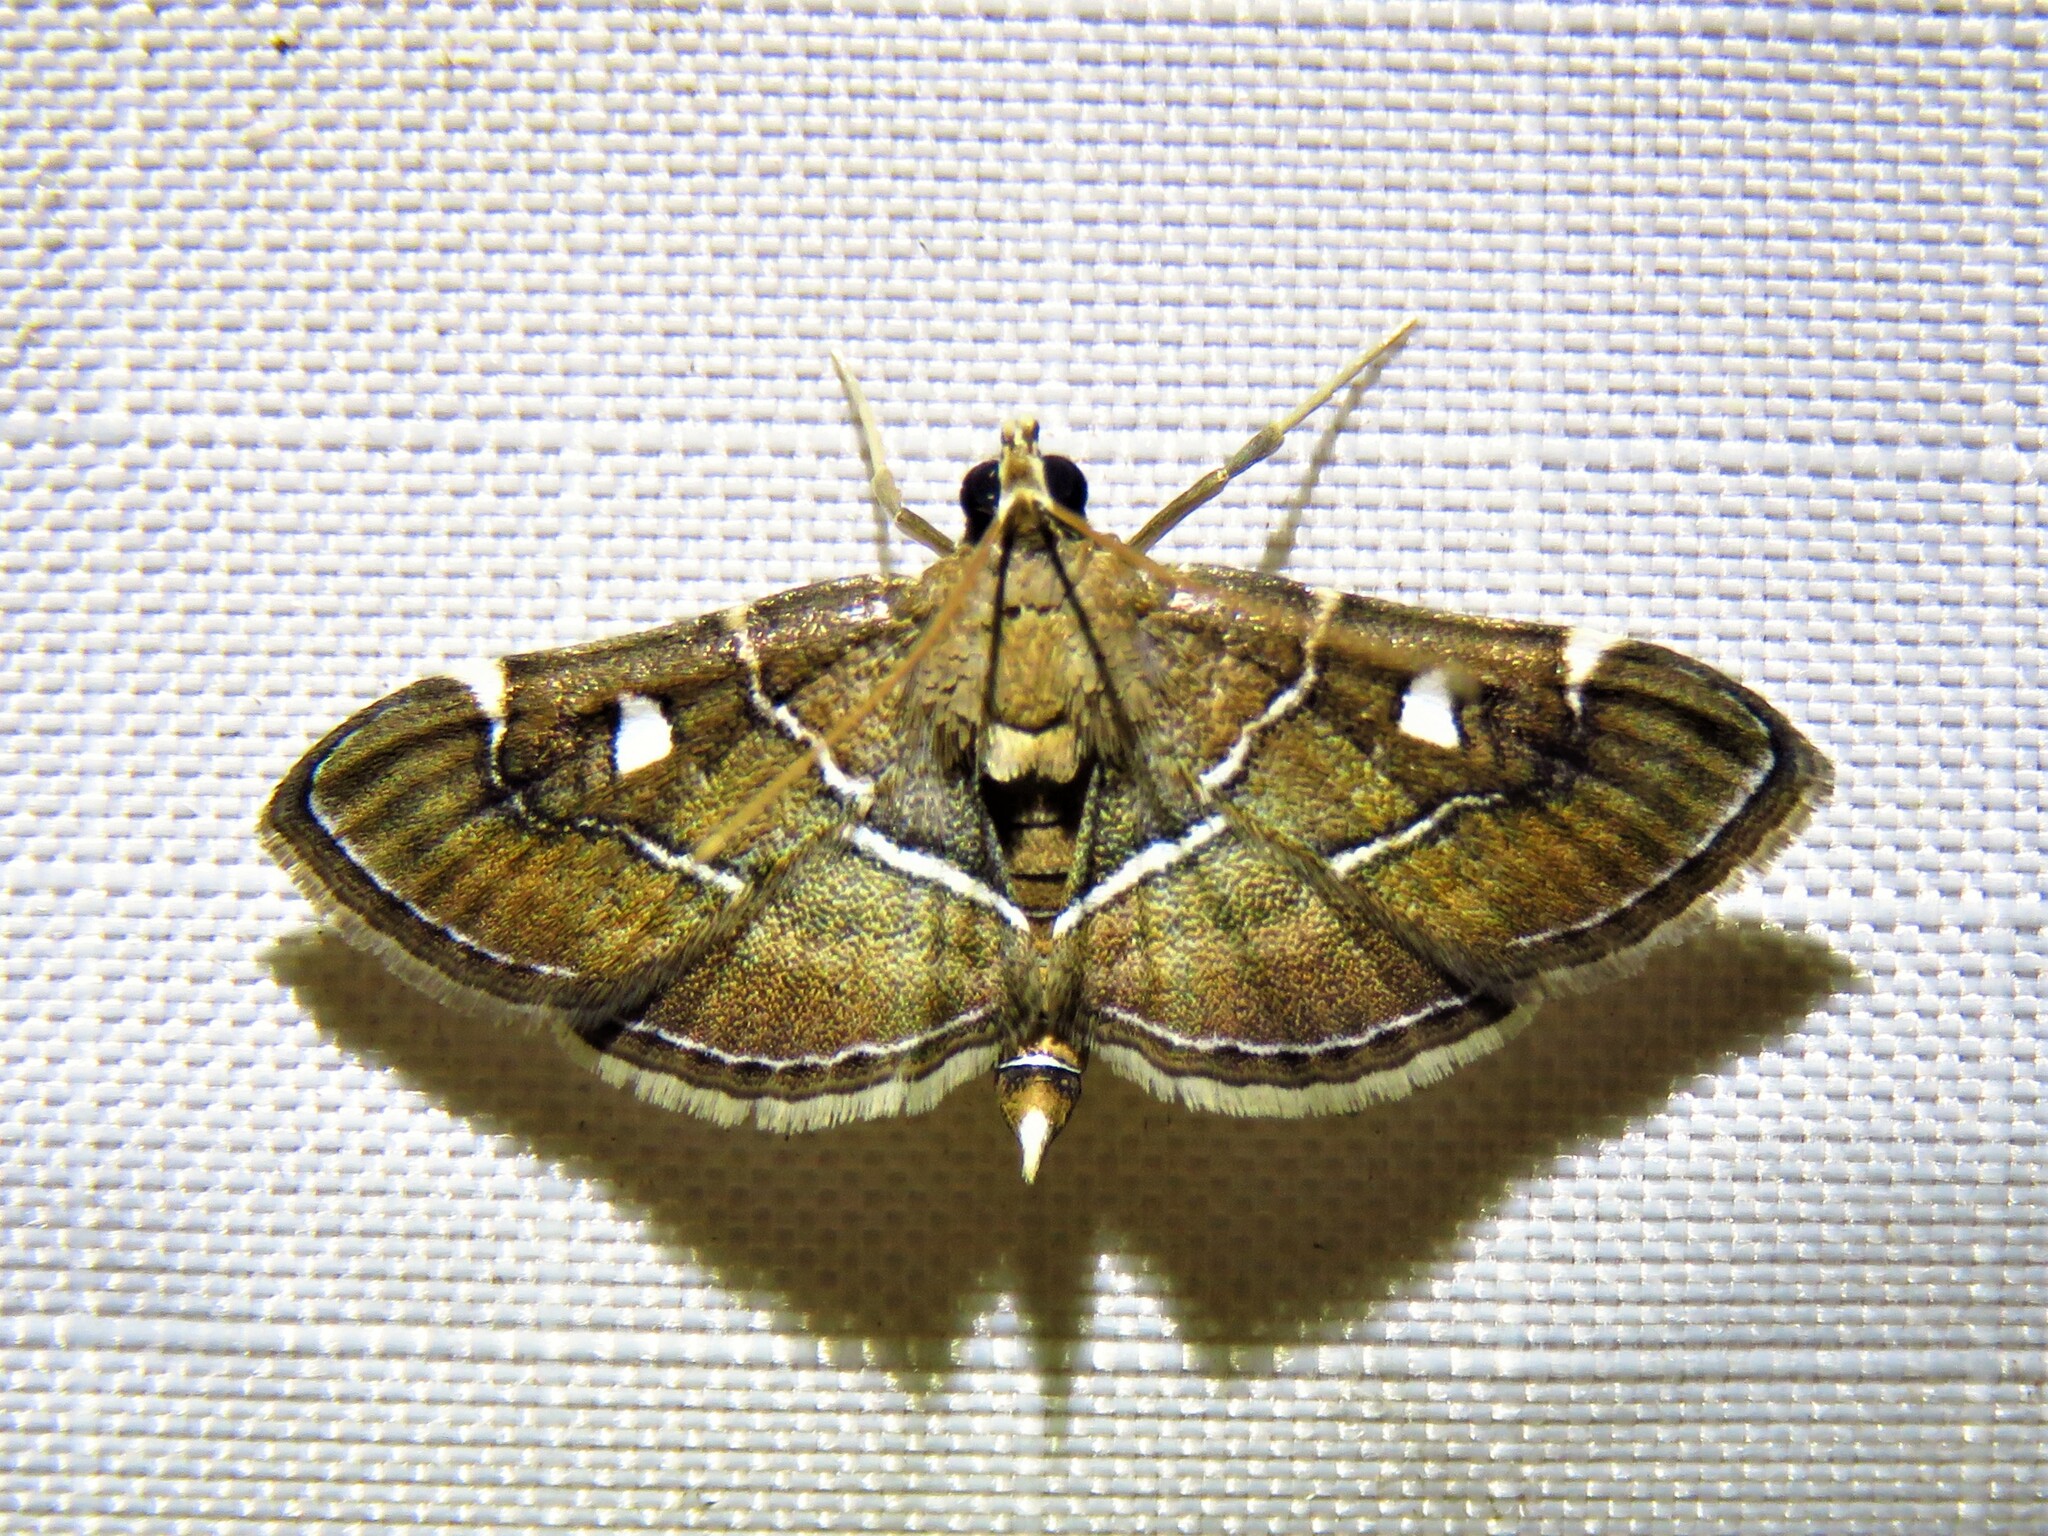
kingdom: Animalia
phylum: Arthropoda
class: Insecta
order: Lepidoptera
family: Crambidae
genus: Lamprosema
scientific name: Lamprosema victoriae
